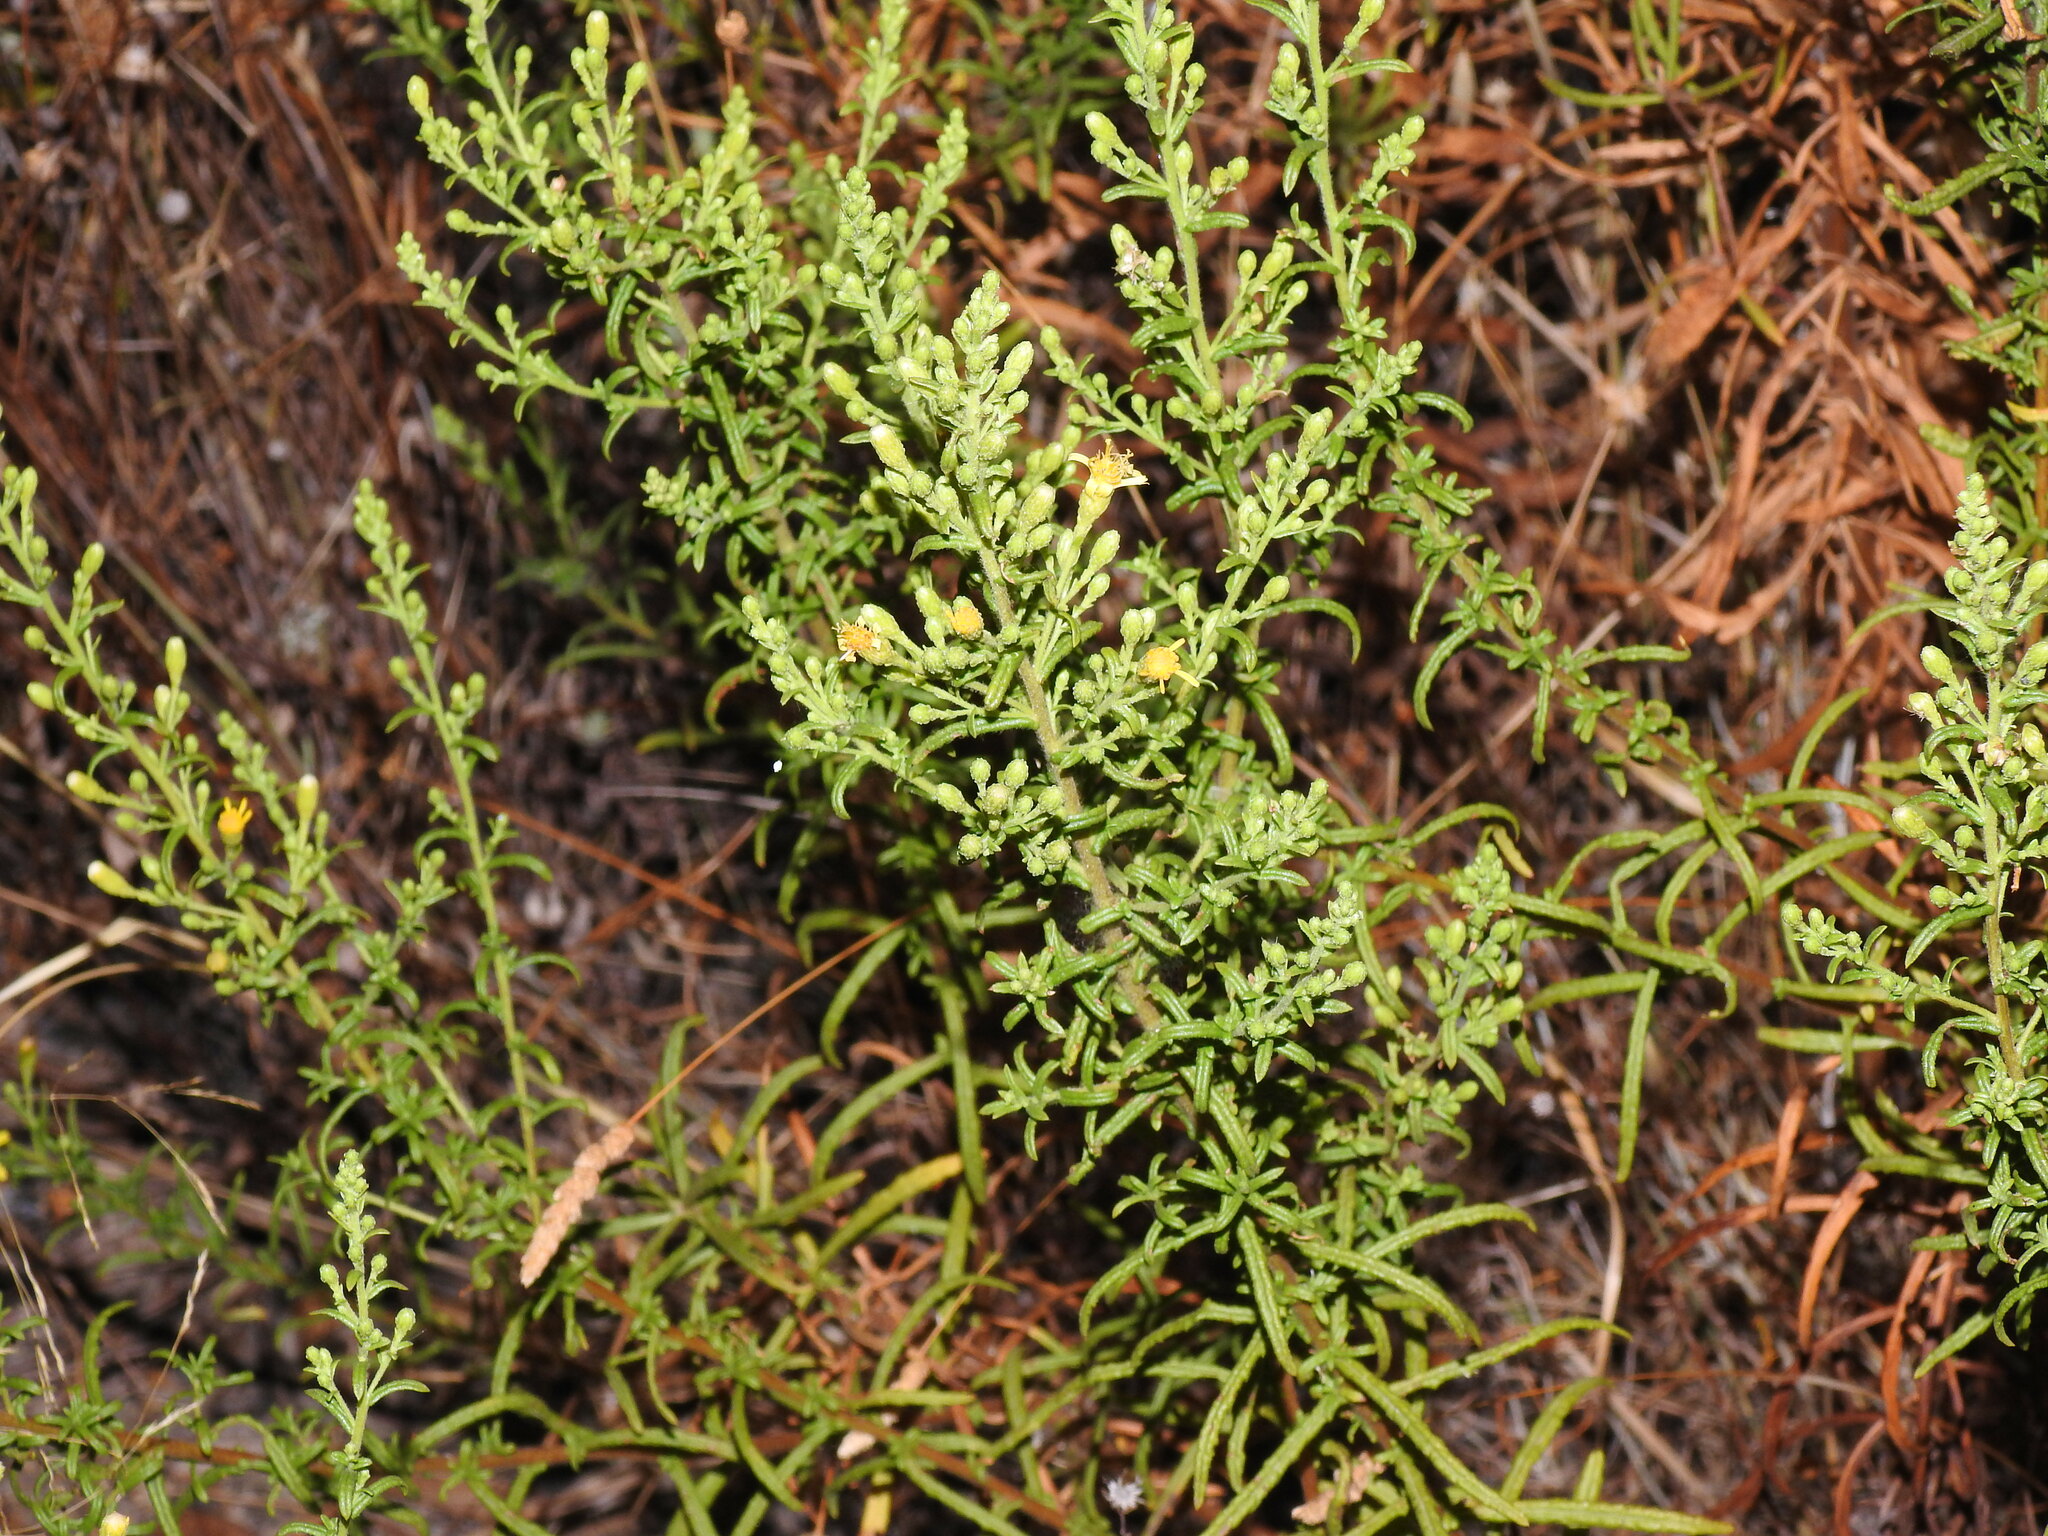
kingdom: Plantae
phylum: Tracheophyta
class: Magnoliopsida
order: Asterales
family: Asteraceae
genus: Dittrichia
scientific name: Dittrichia viscosa
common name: Woody fleabane
